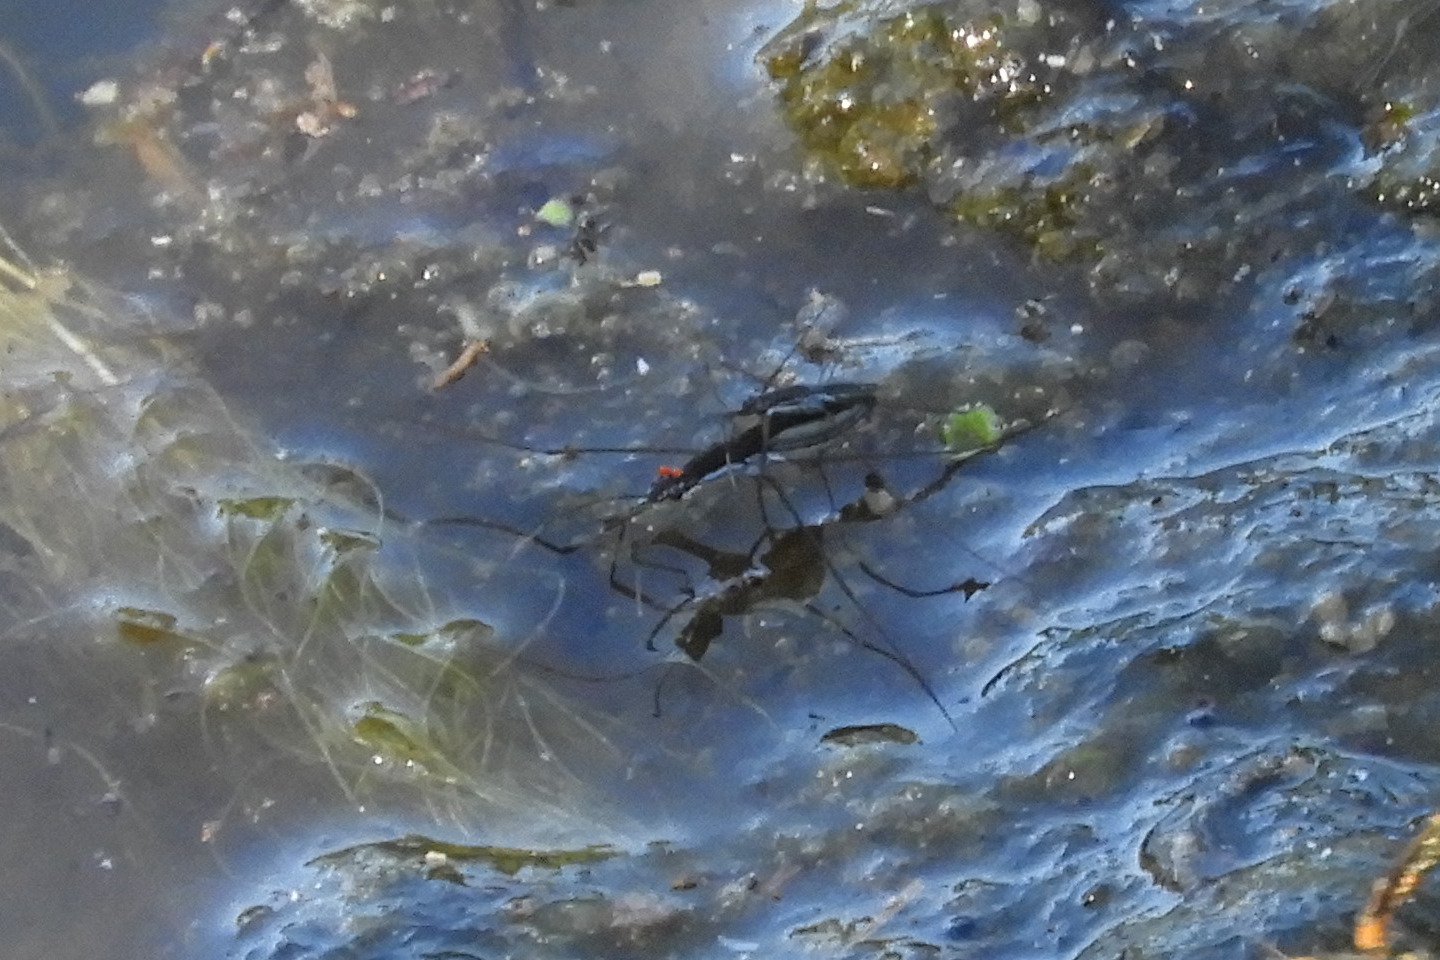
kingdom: Animalia
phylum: Arthropoda
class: Insecta
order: Hemiptera
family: Gerridae
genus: Limnoporus
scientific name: Limnoporus canaliculatus
